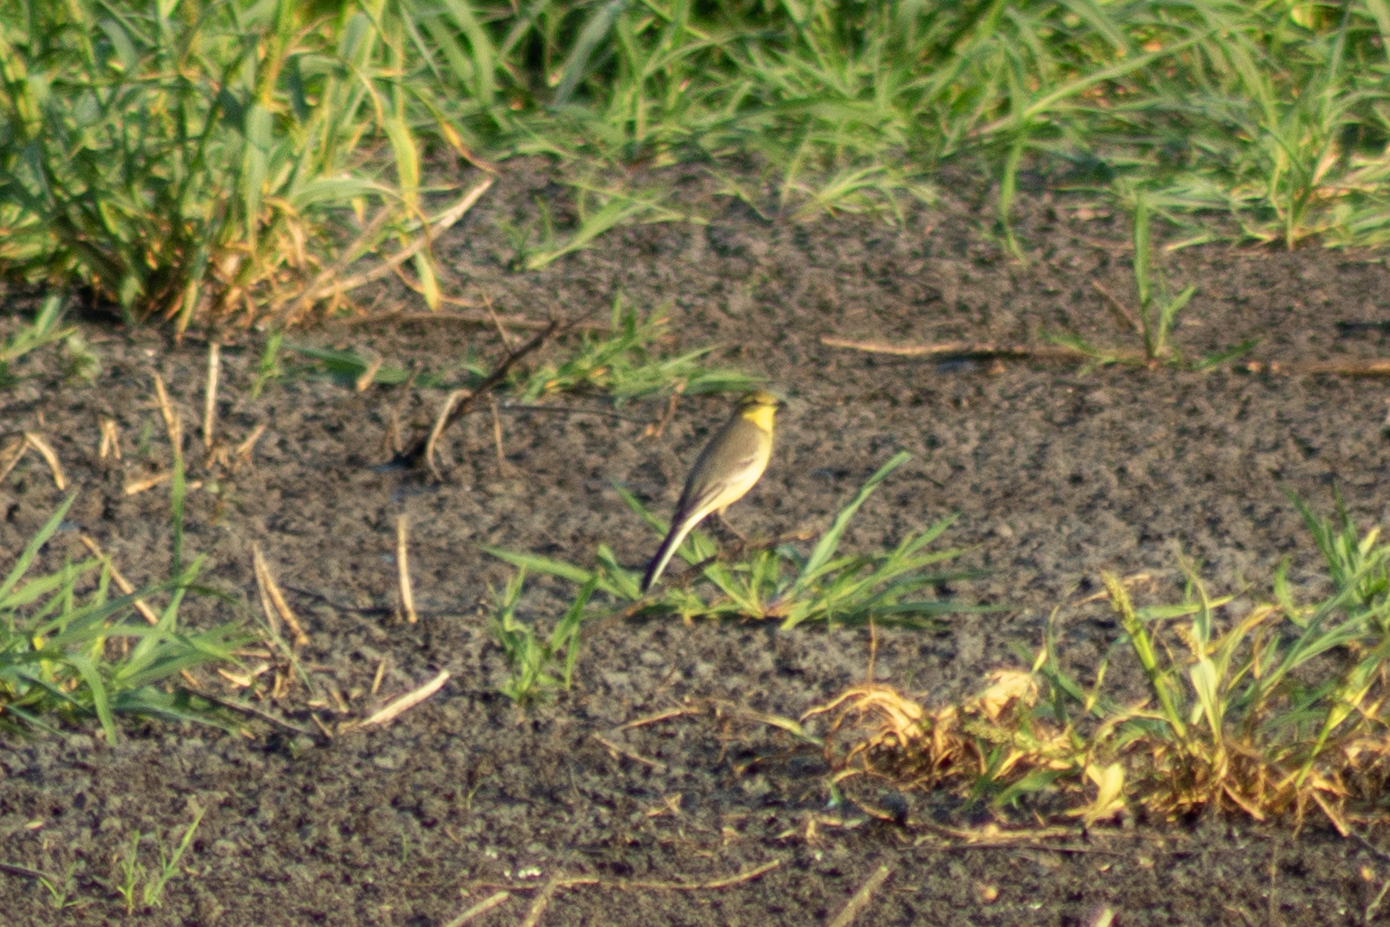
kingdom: Animalia
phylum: Chordata
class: Aves
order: Passeriformes
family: Motacillidae
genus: Motacilla
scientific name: Motacilla citreola
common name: Citrine wagtail
